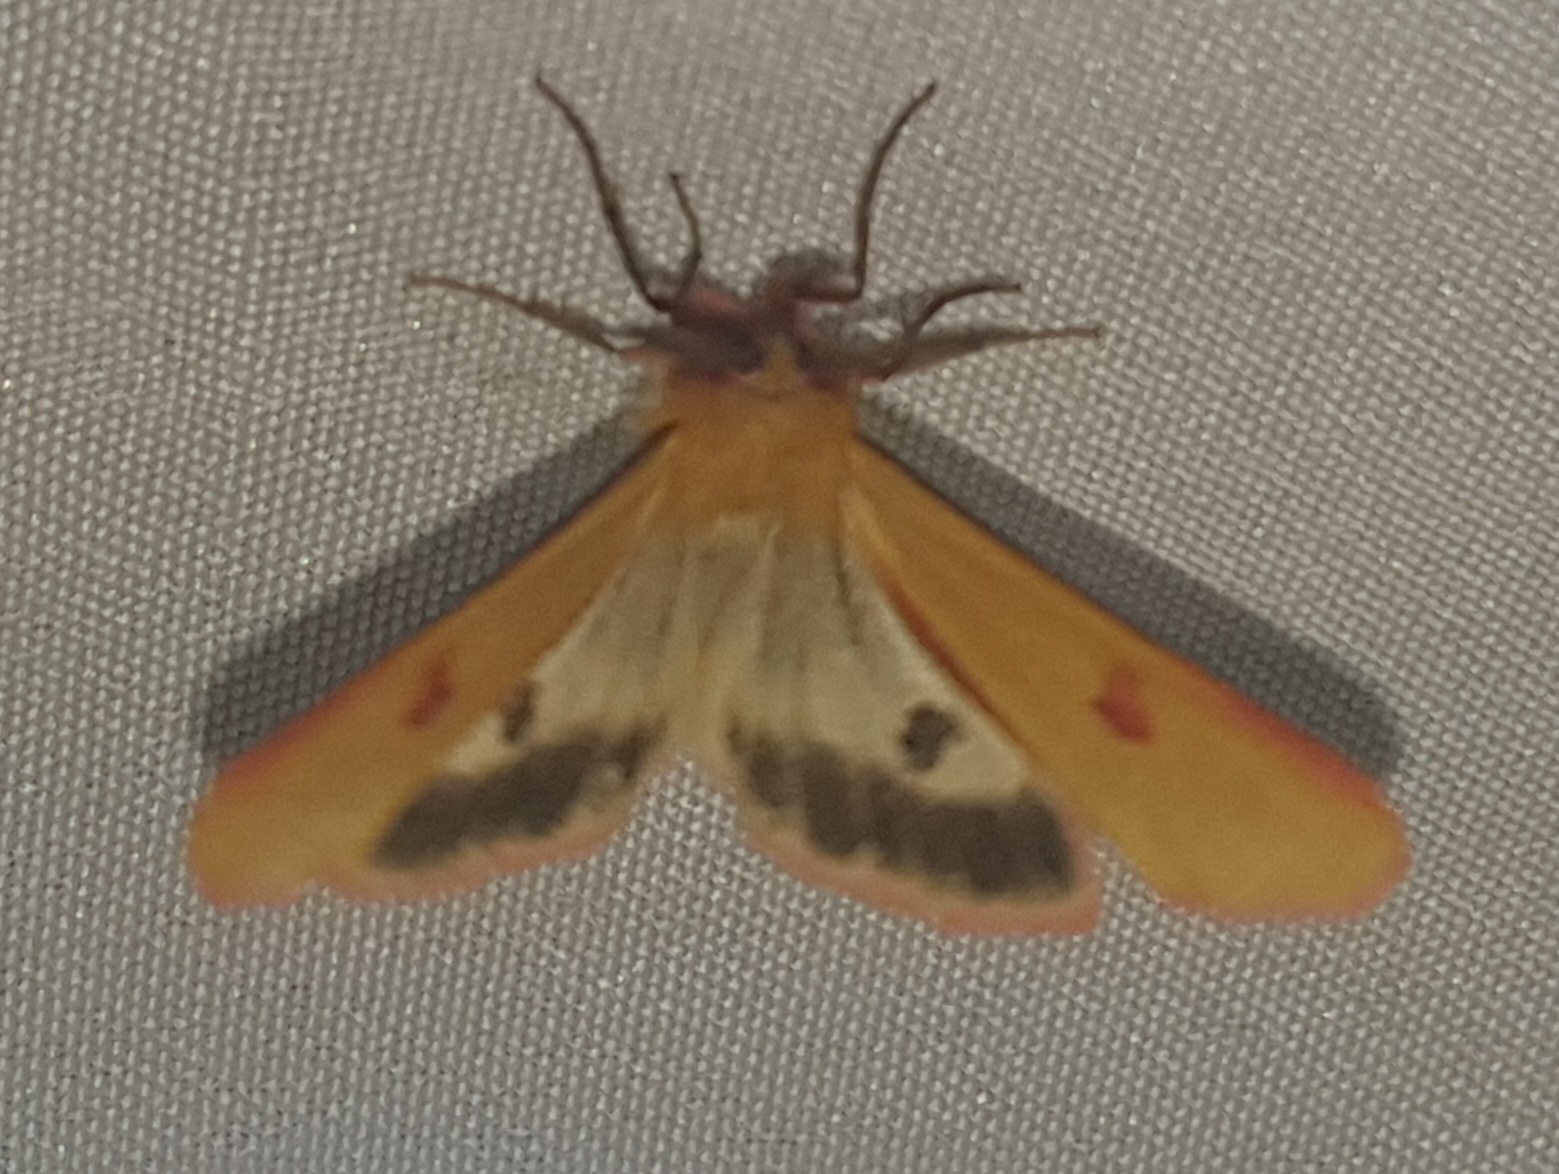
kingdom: Animalia
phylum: Arthropoda
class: Insecta
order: Lepidoptera
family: Erebidae
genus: Diacrisia
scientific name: Diacrisia sannio
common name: Clouded buff
